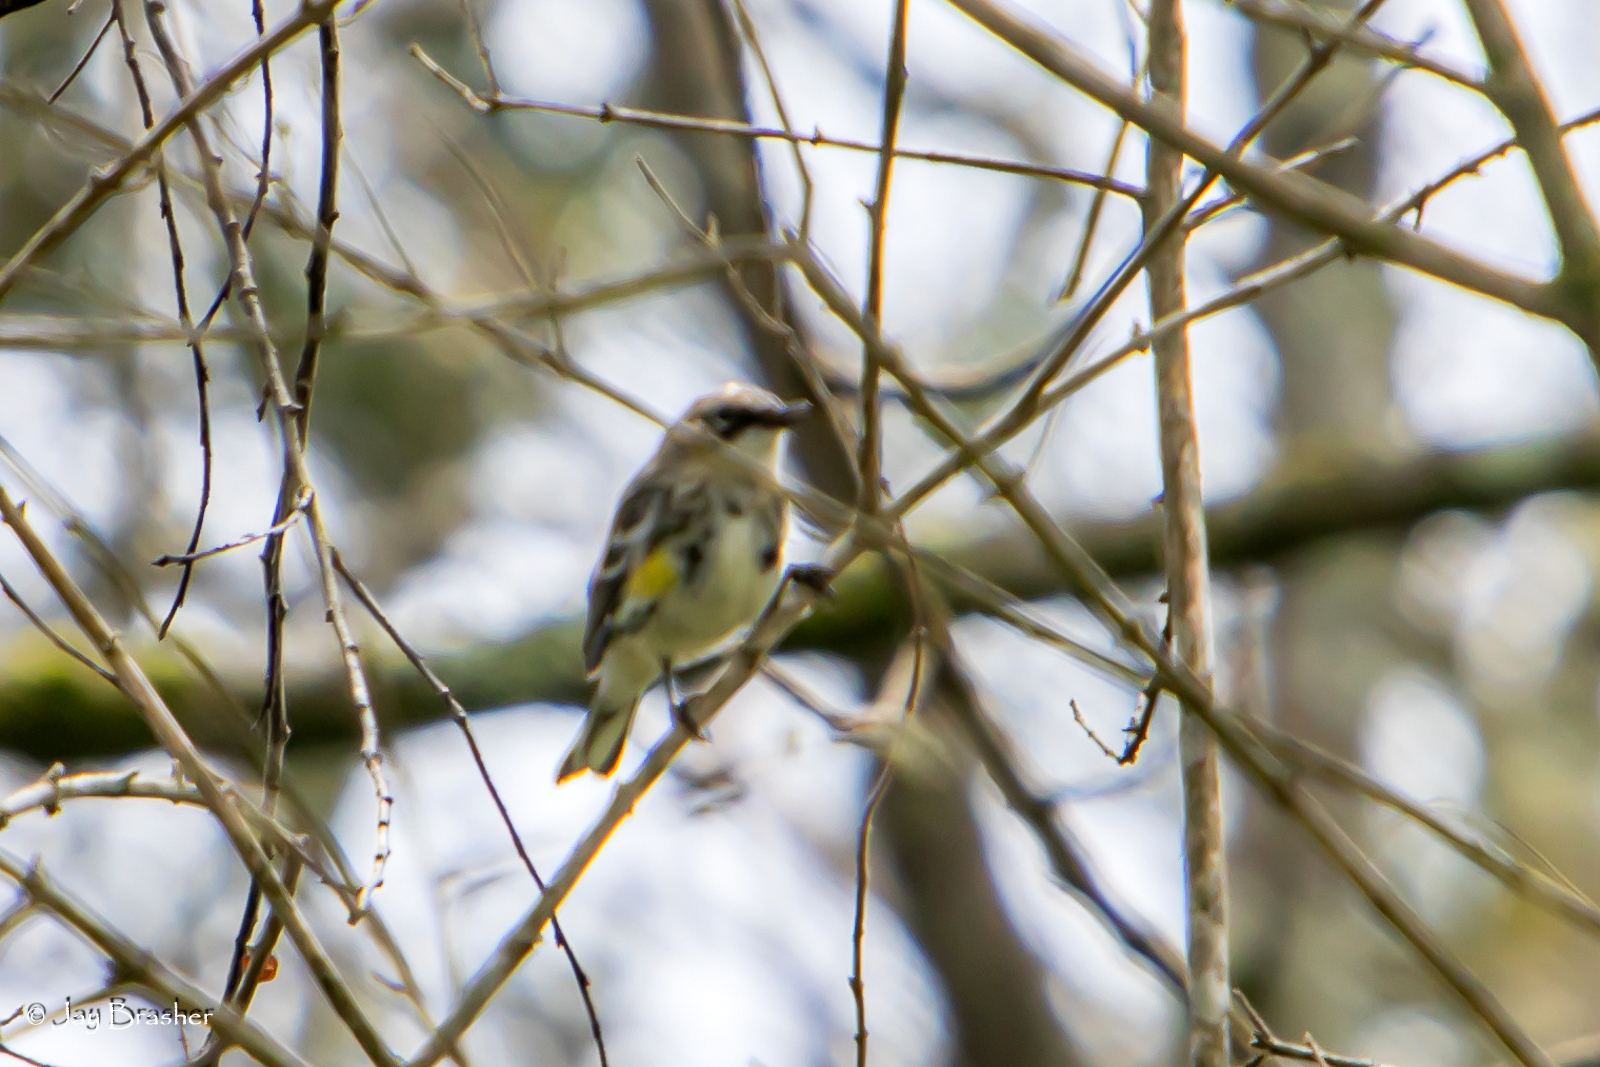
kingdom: Animalia
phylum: Chordata
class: Aves
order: Passeriformes
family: Parulidae
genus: Setophaga
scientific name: Setophaga coronata
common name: Myrtle warbler
